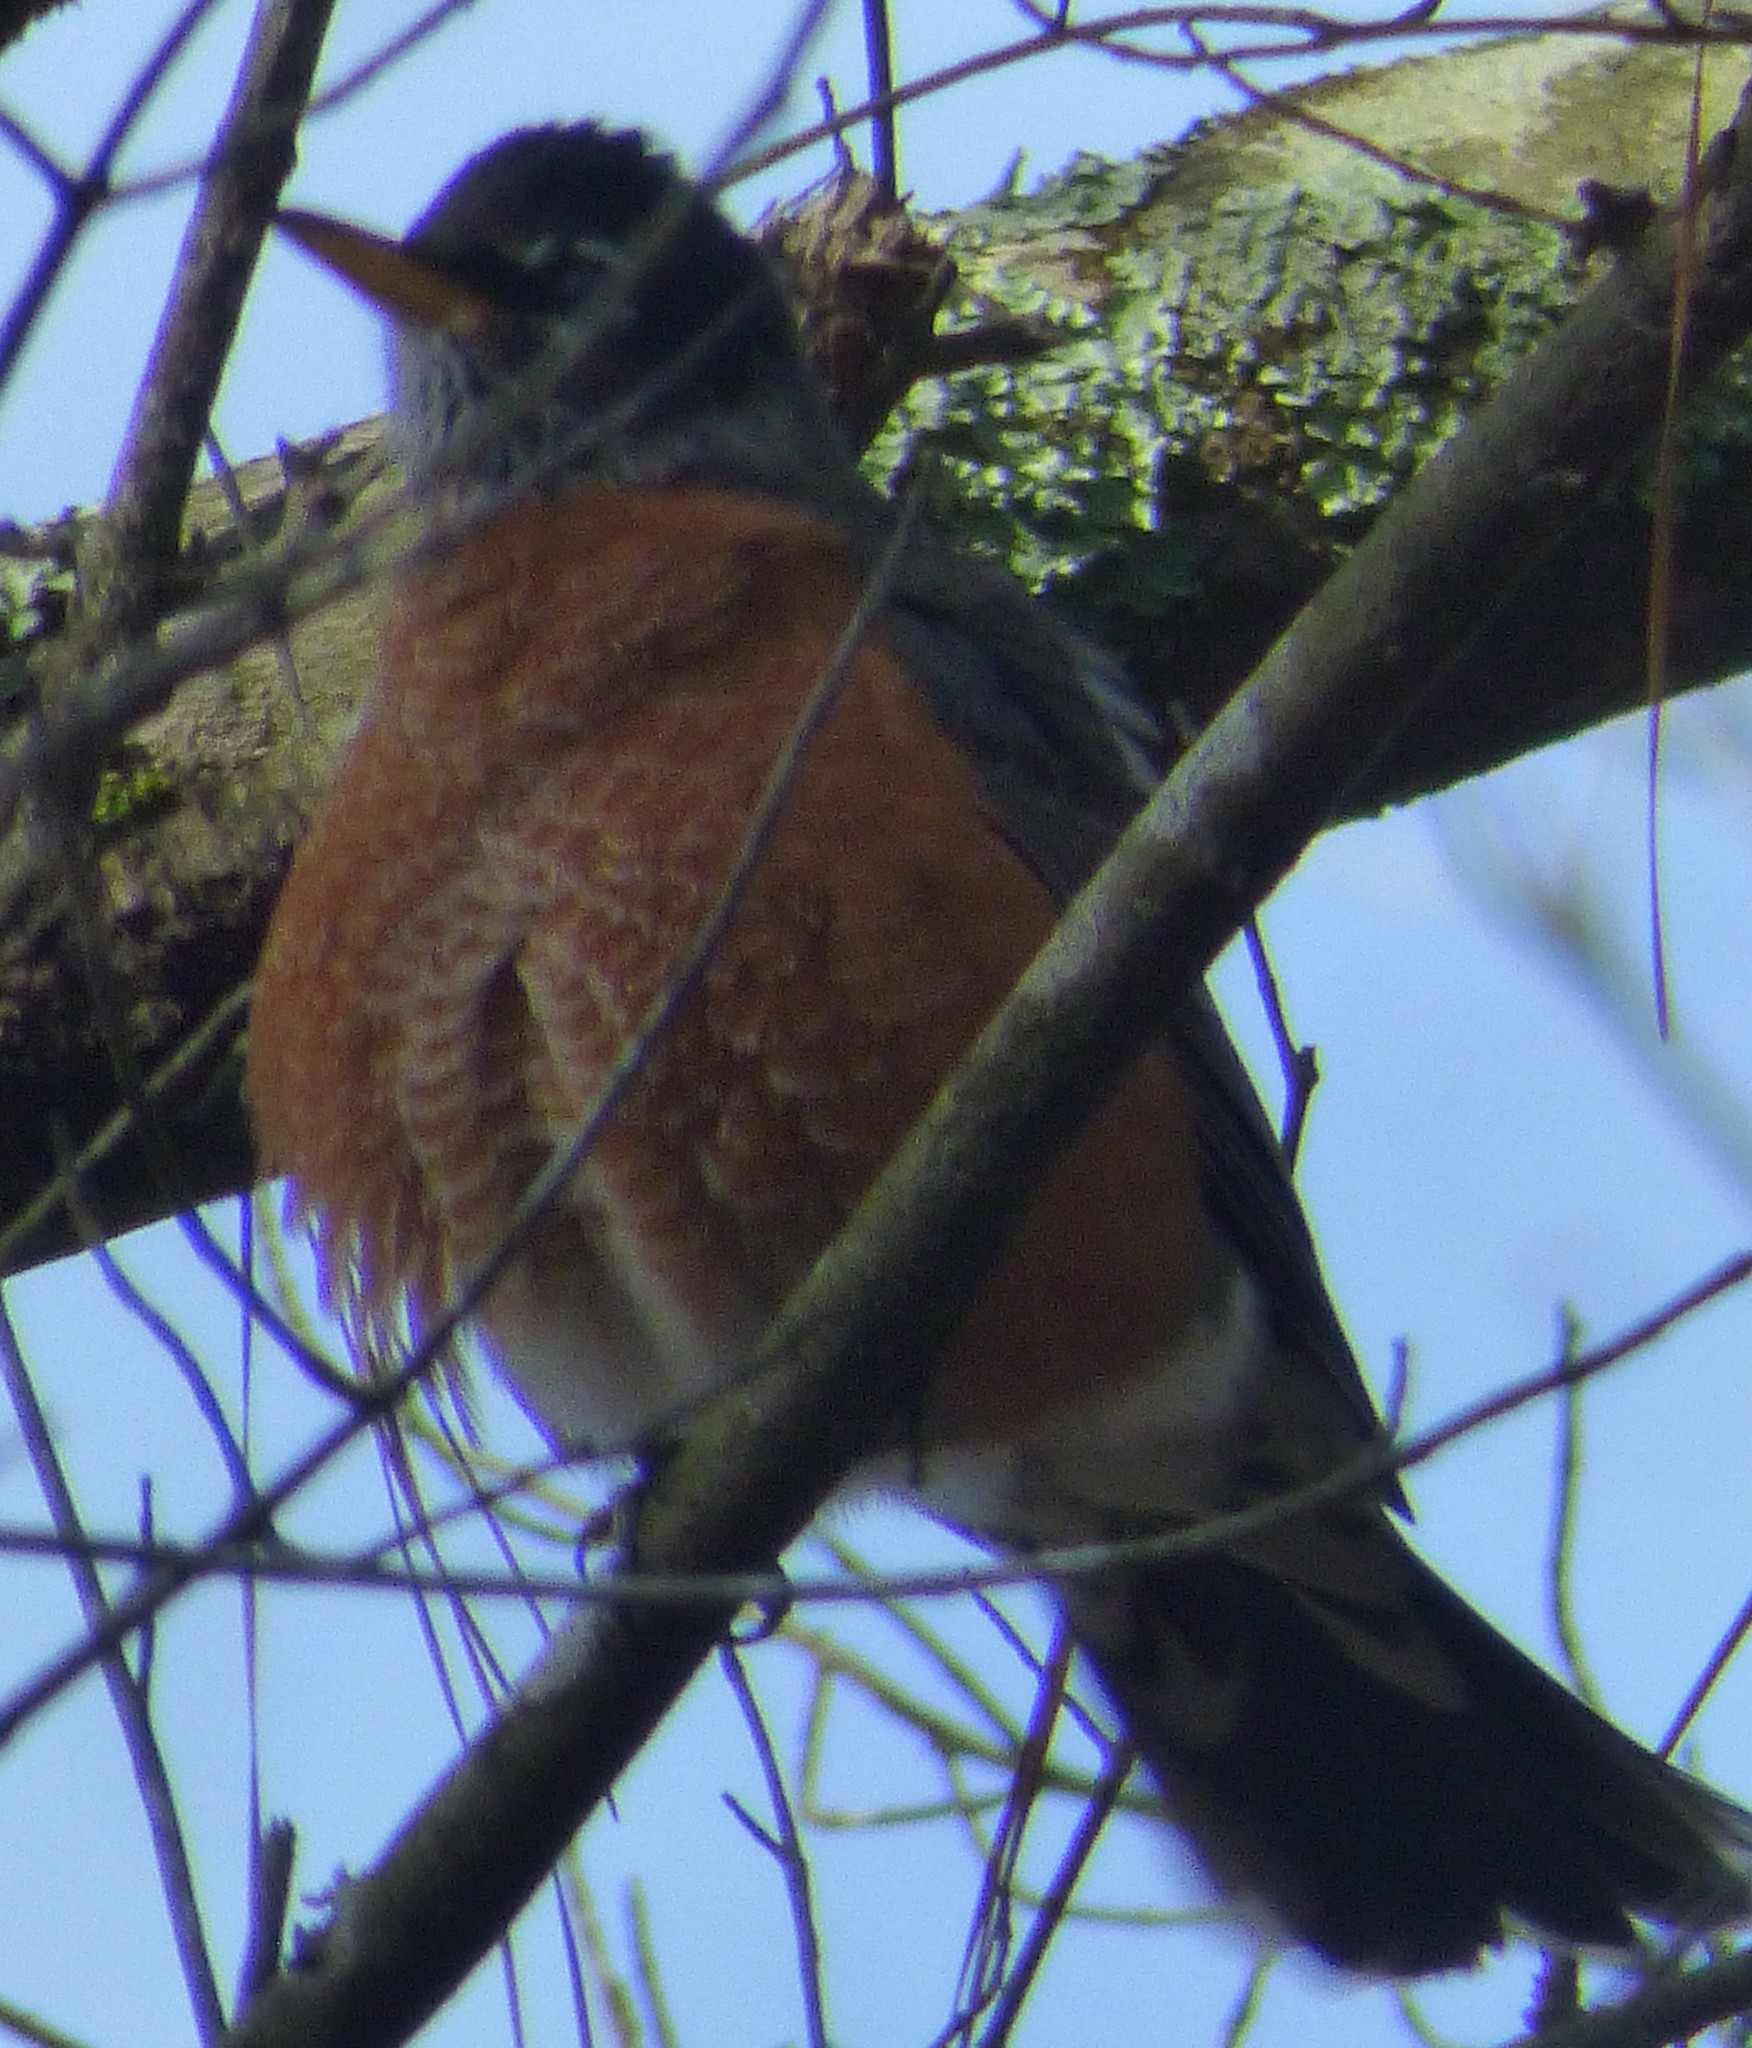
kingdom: Animalia
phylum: Chordata
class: Aves
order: Passeriformes
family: Turdidae
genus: Turdus
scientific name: Turdus migratorius
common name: American robin
